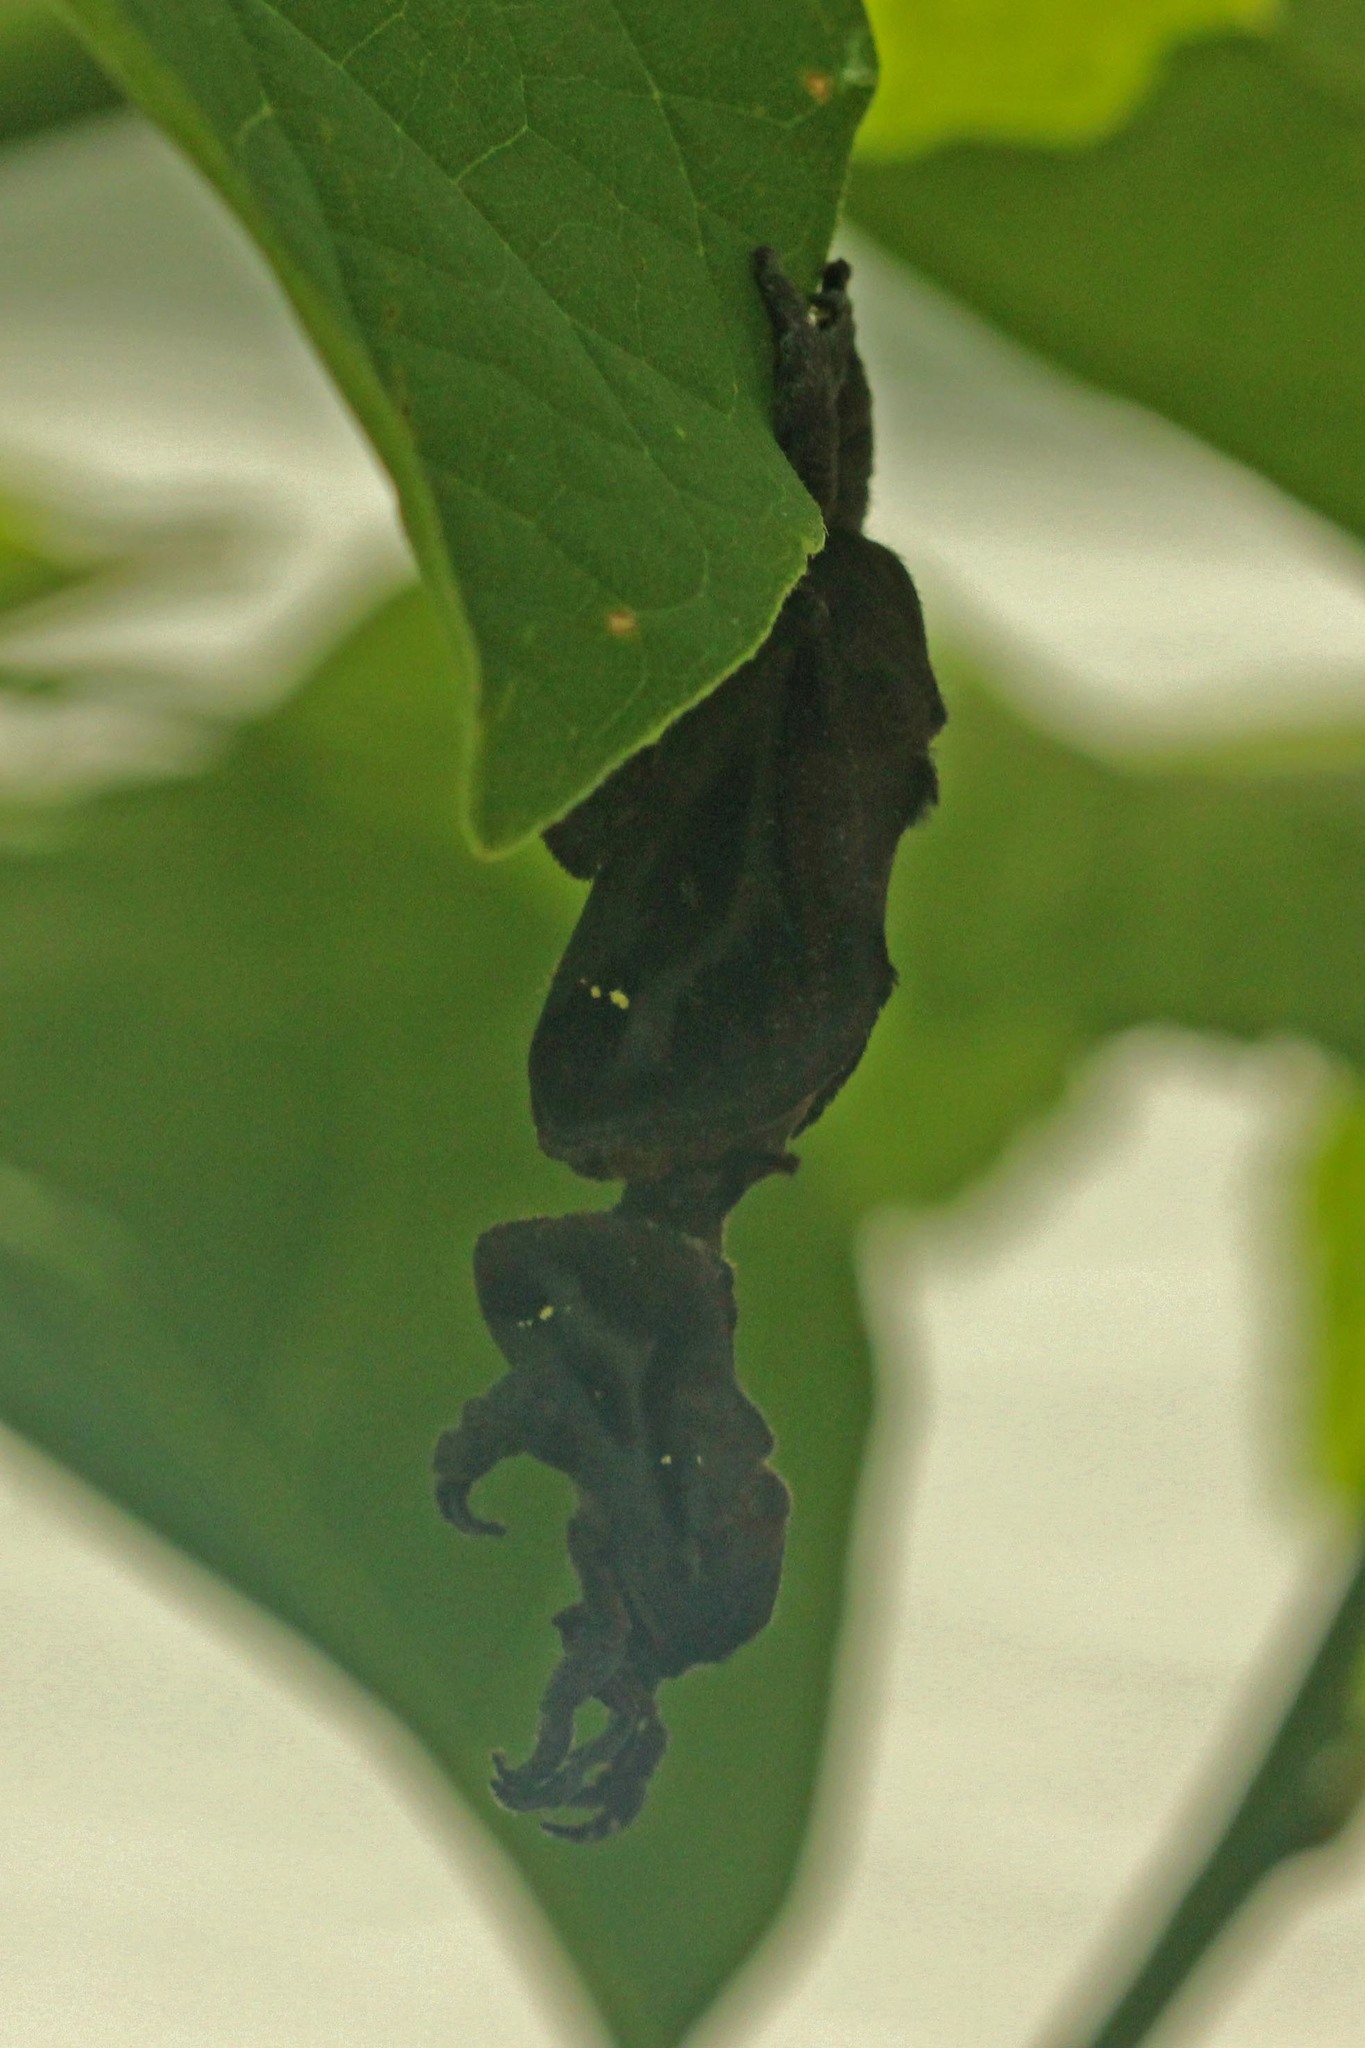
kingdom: Animalia
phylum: Arthropoda
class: Insecta
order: Lepidoptera
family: Limacodidae
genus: Acharia
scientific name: Acharia stimulea
